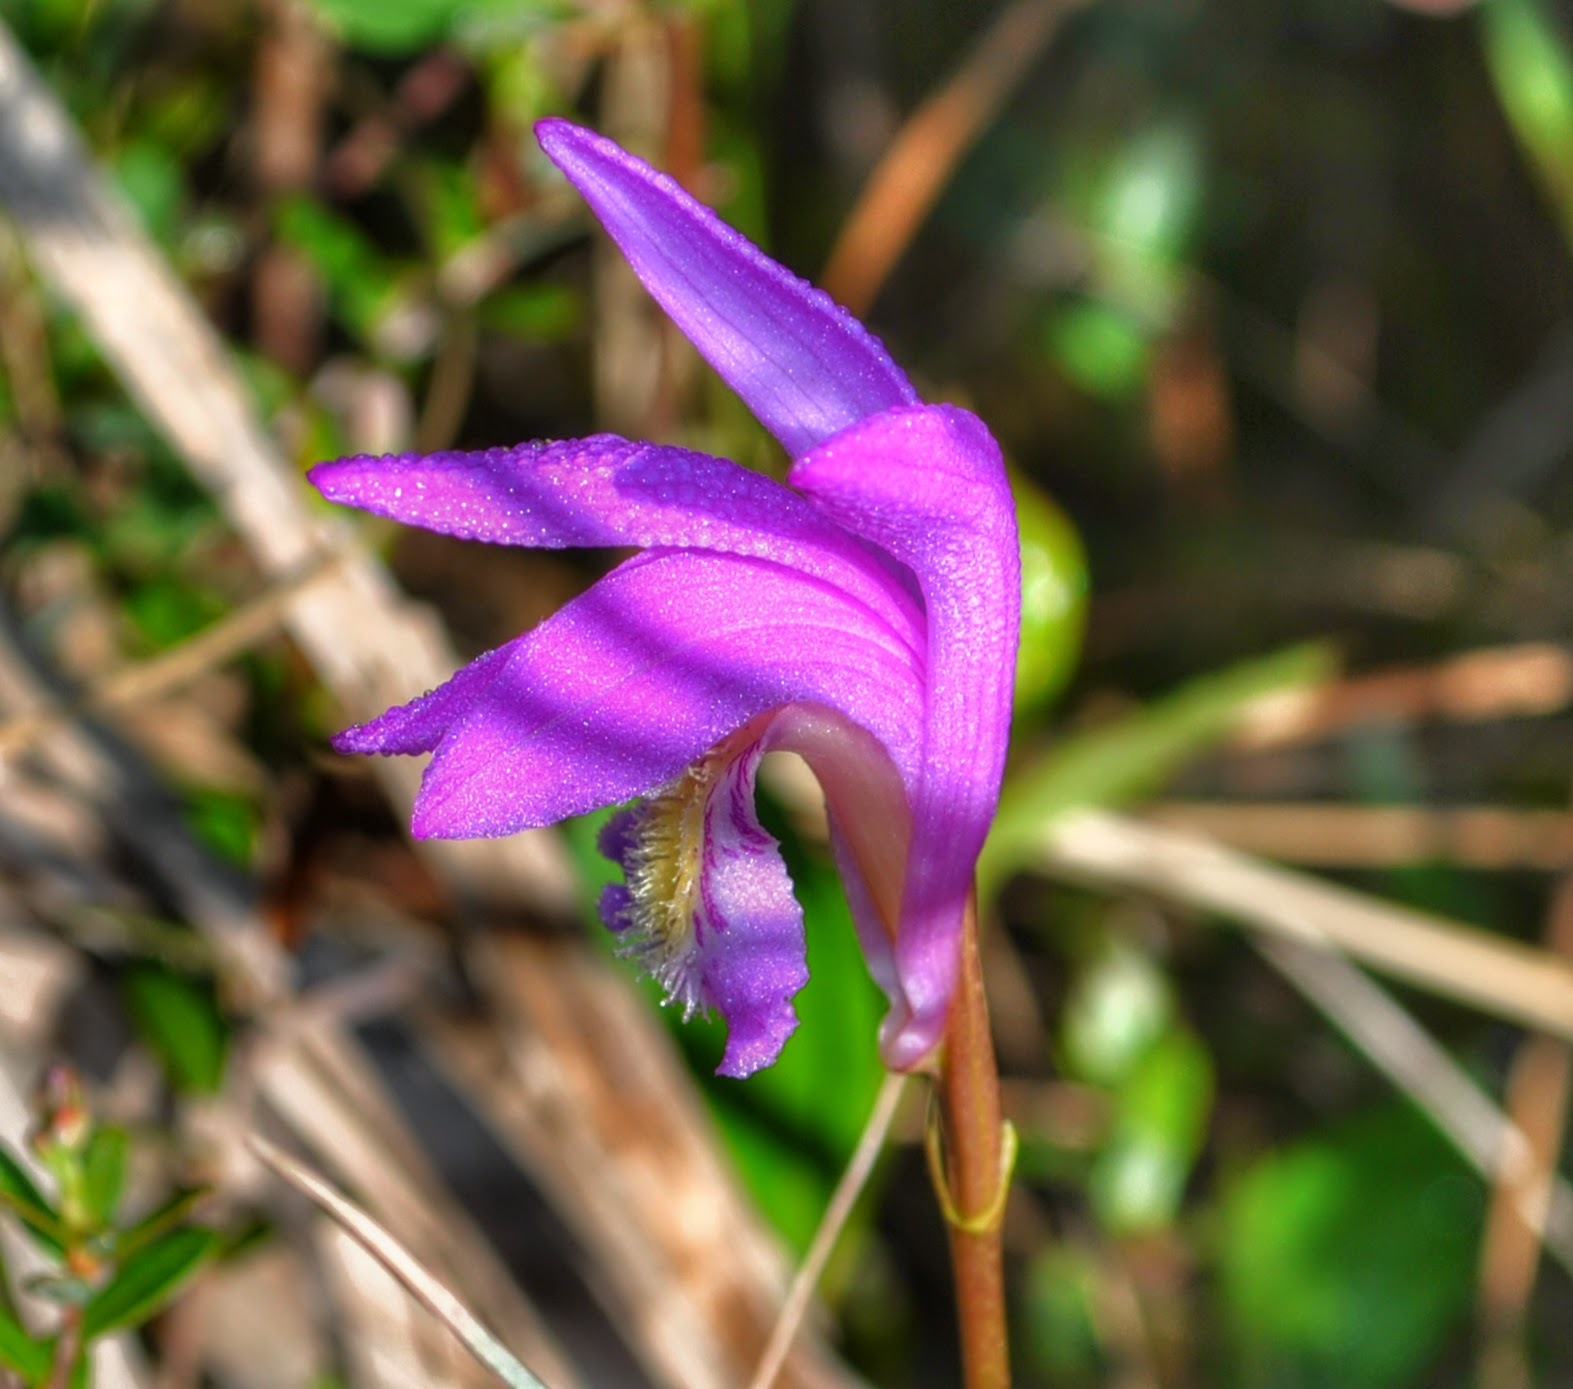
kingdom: Plantae
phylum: Tracheophyta
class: Liliopsida
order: Asparagales
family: Orchidaceae
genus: Arethusa
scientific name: Arethusa bulbosa
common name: Arethusa
